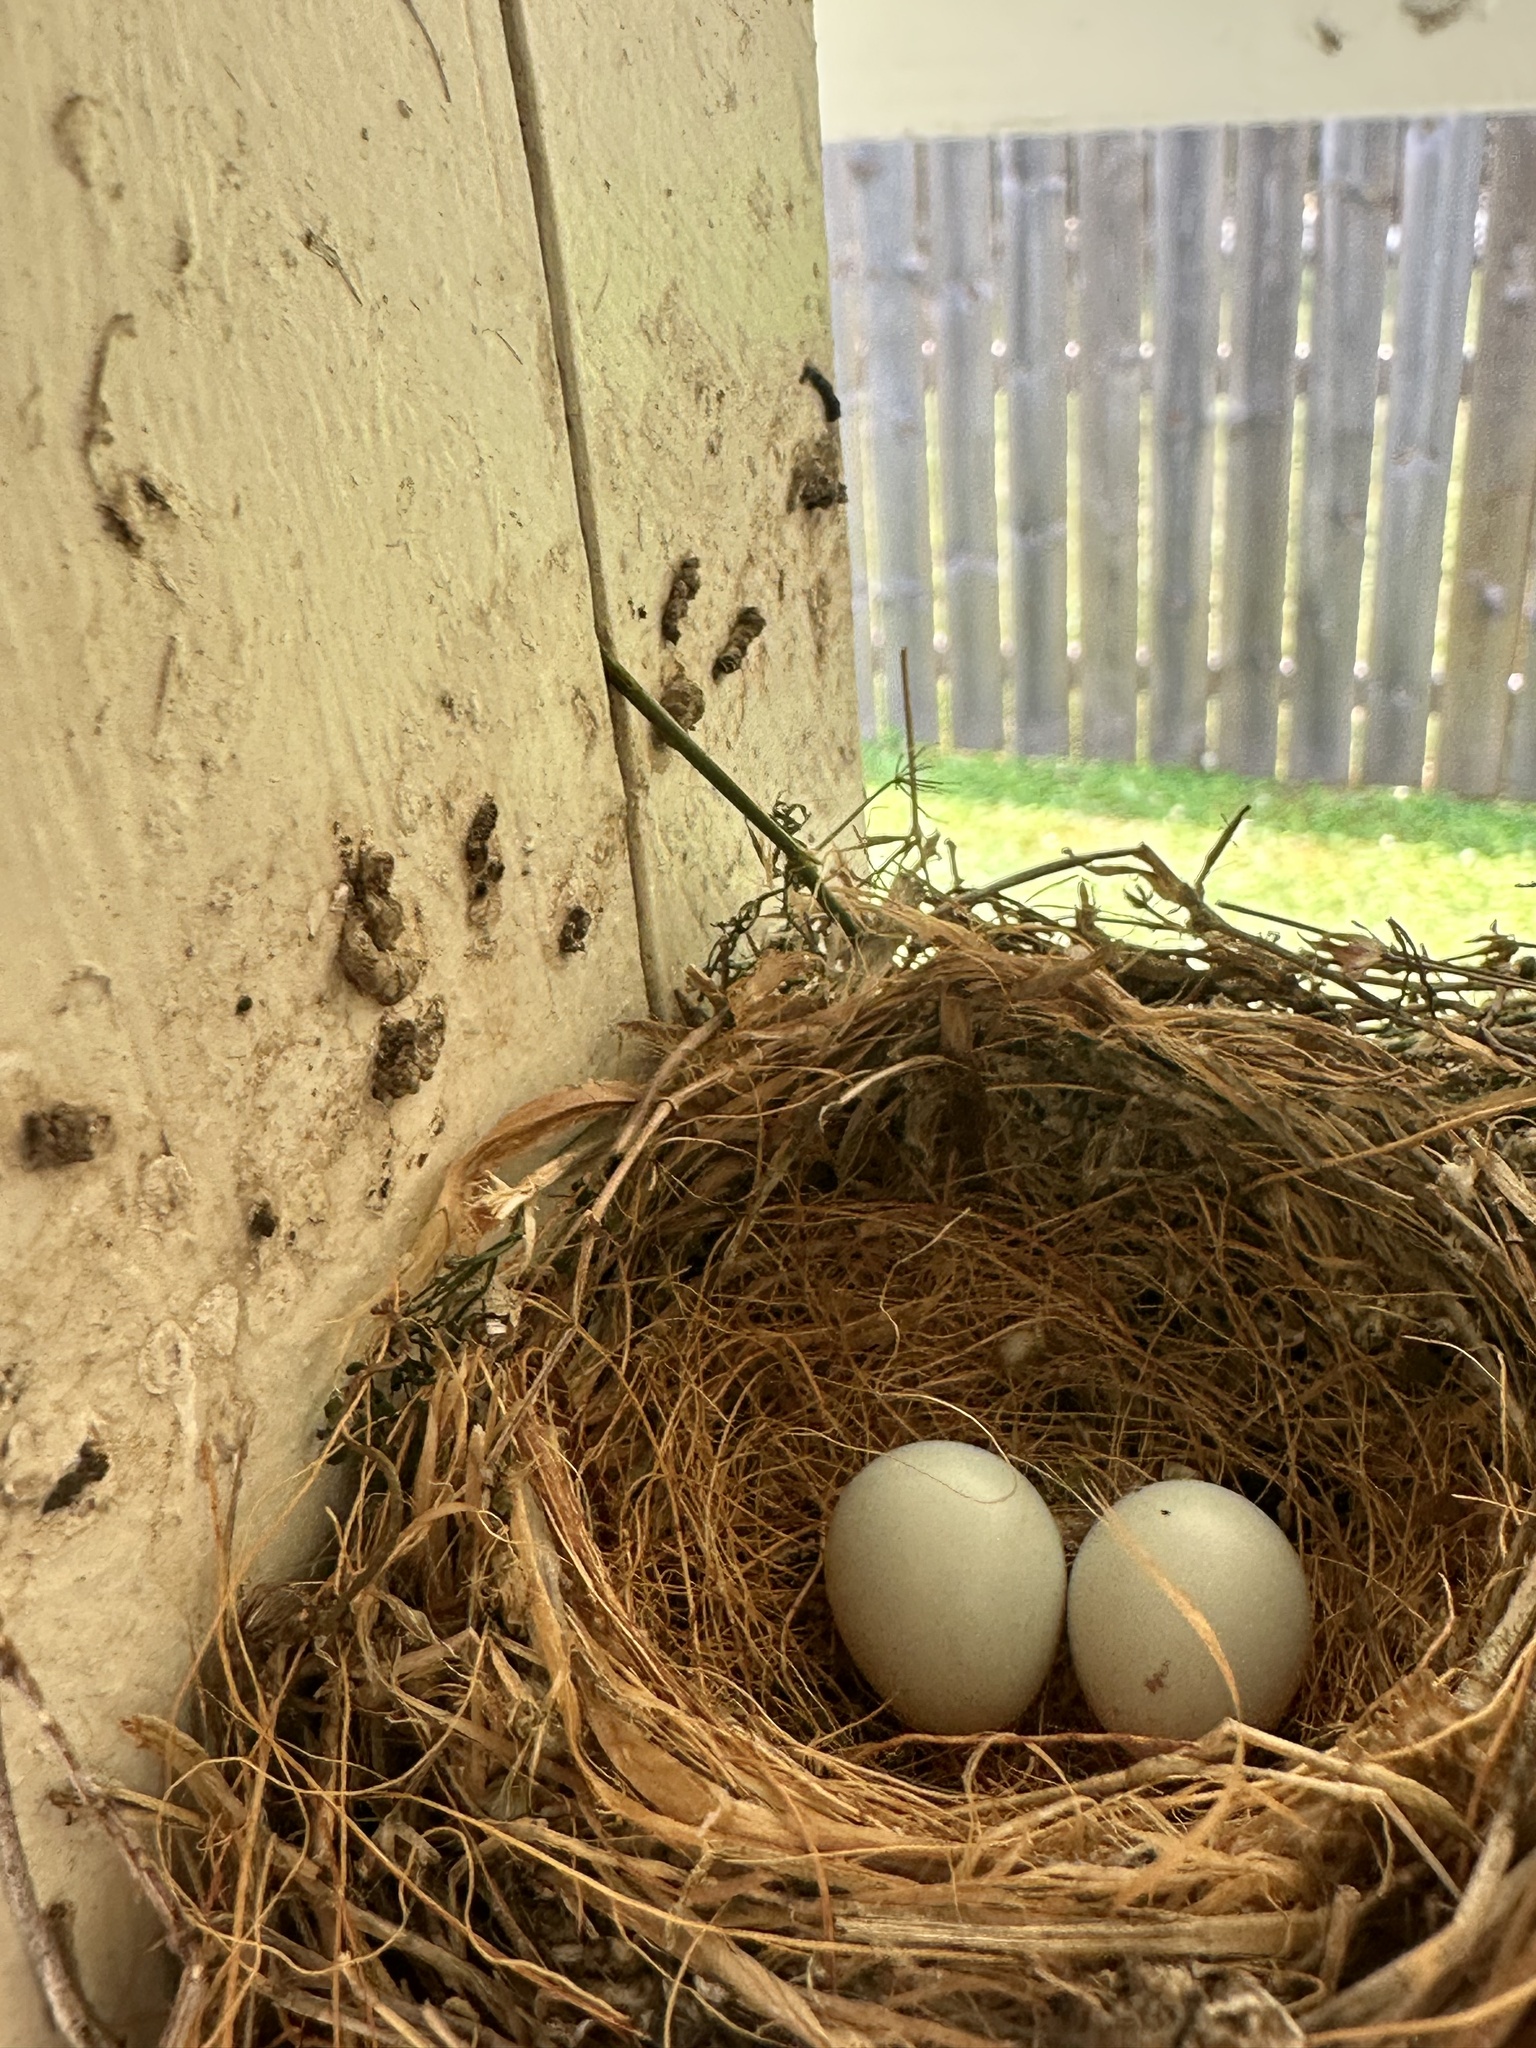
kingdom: Animalia
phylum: Chordata
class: Aves
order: Passeriformes
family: Fringillidae
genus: Haemorhous
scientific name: Haemorhous mexicanus
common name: House finch
